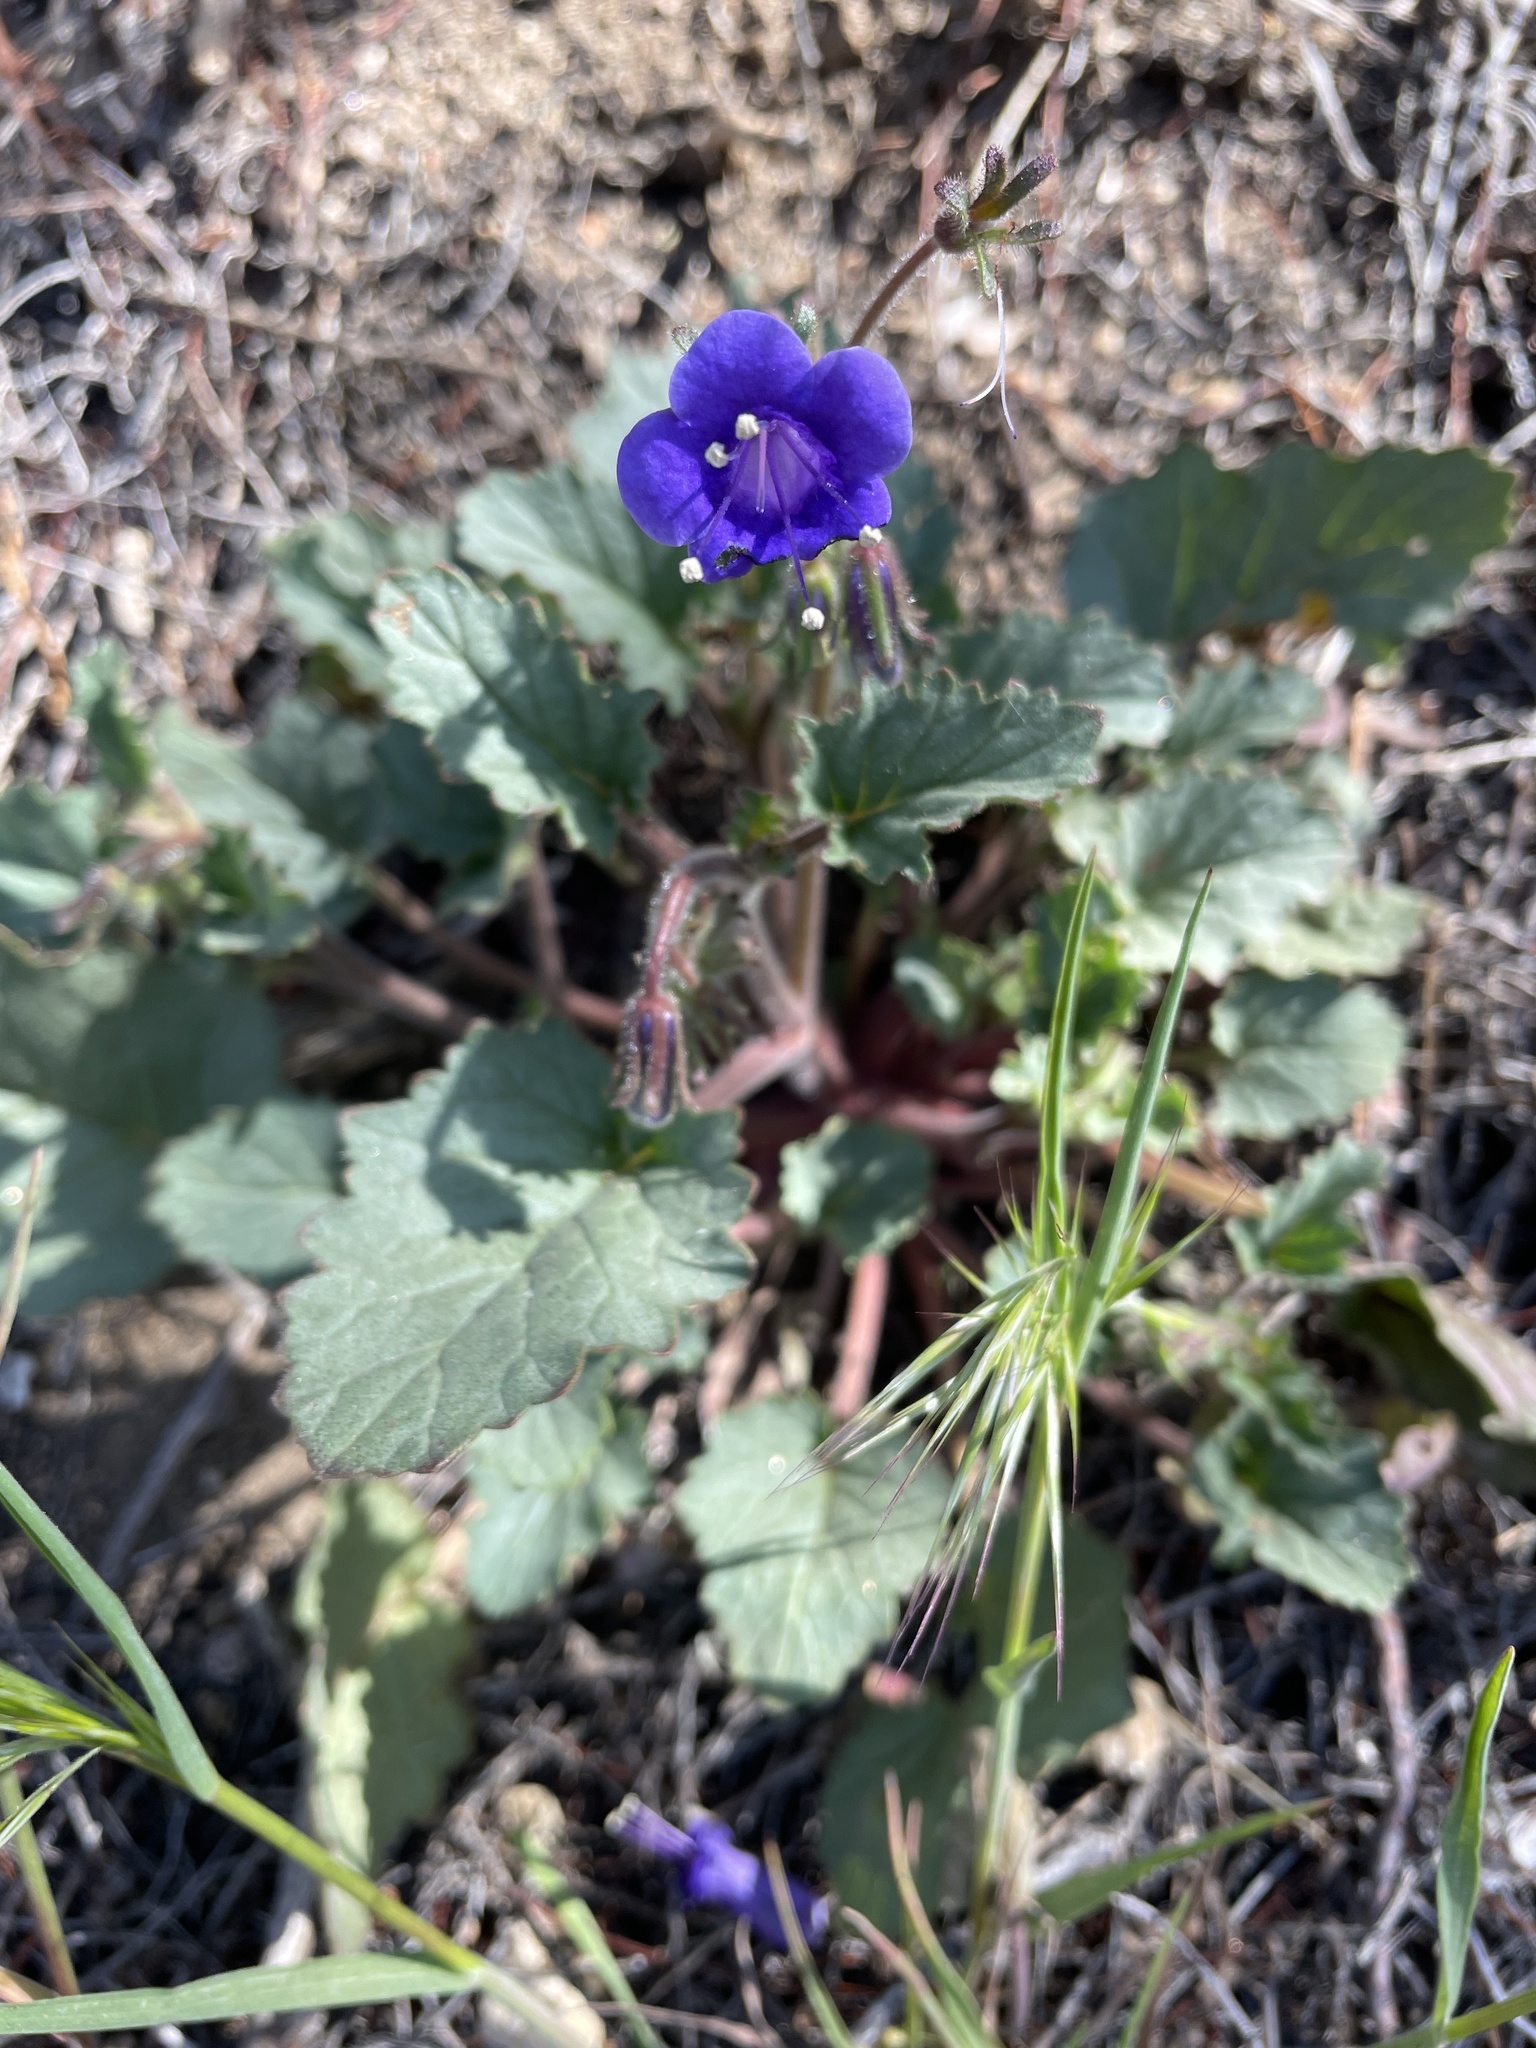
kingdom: Plantae
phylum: Tracheophyta
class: Magnoliopsida
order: Boraginales
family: Hydrophyllaceae
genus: Phacelia
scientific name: Phacelia minor
